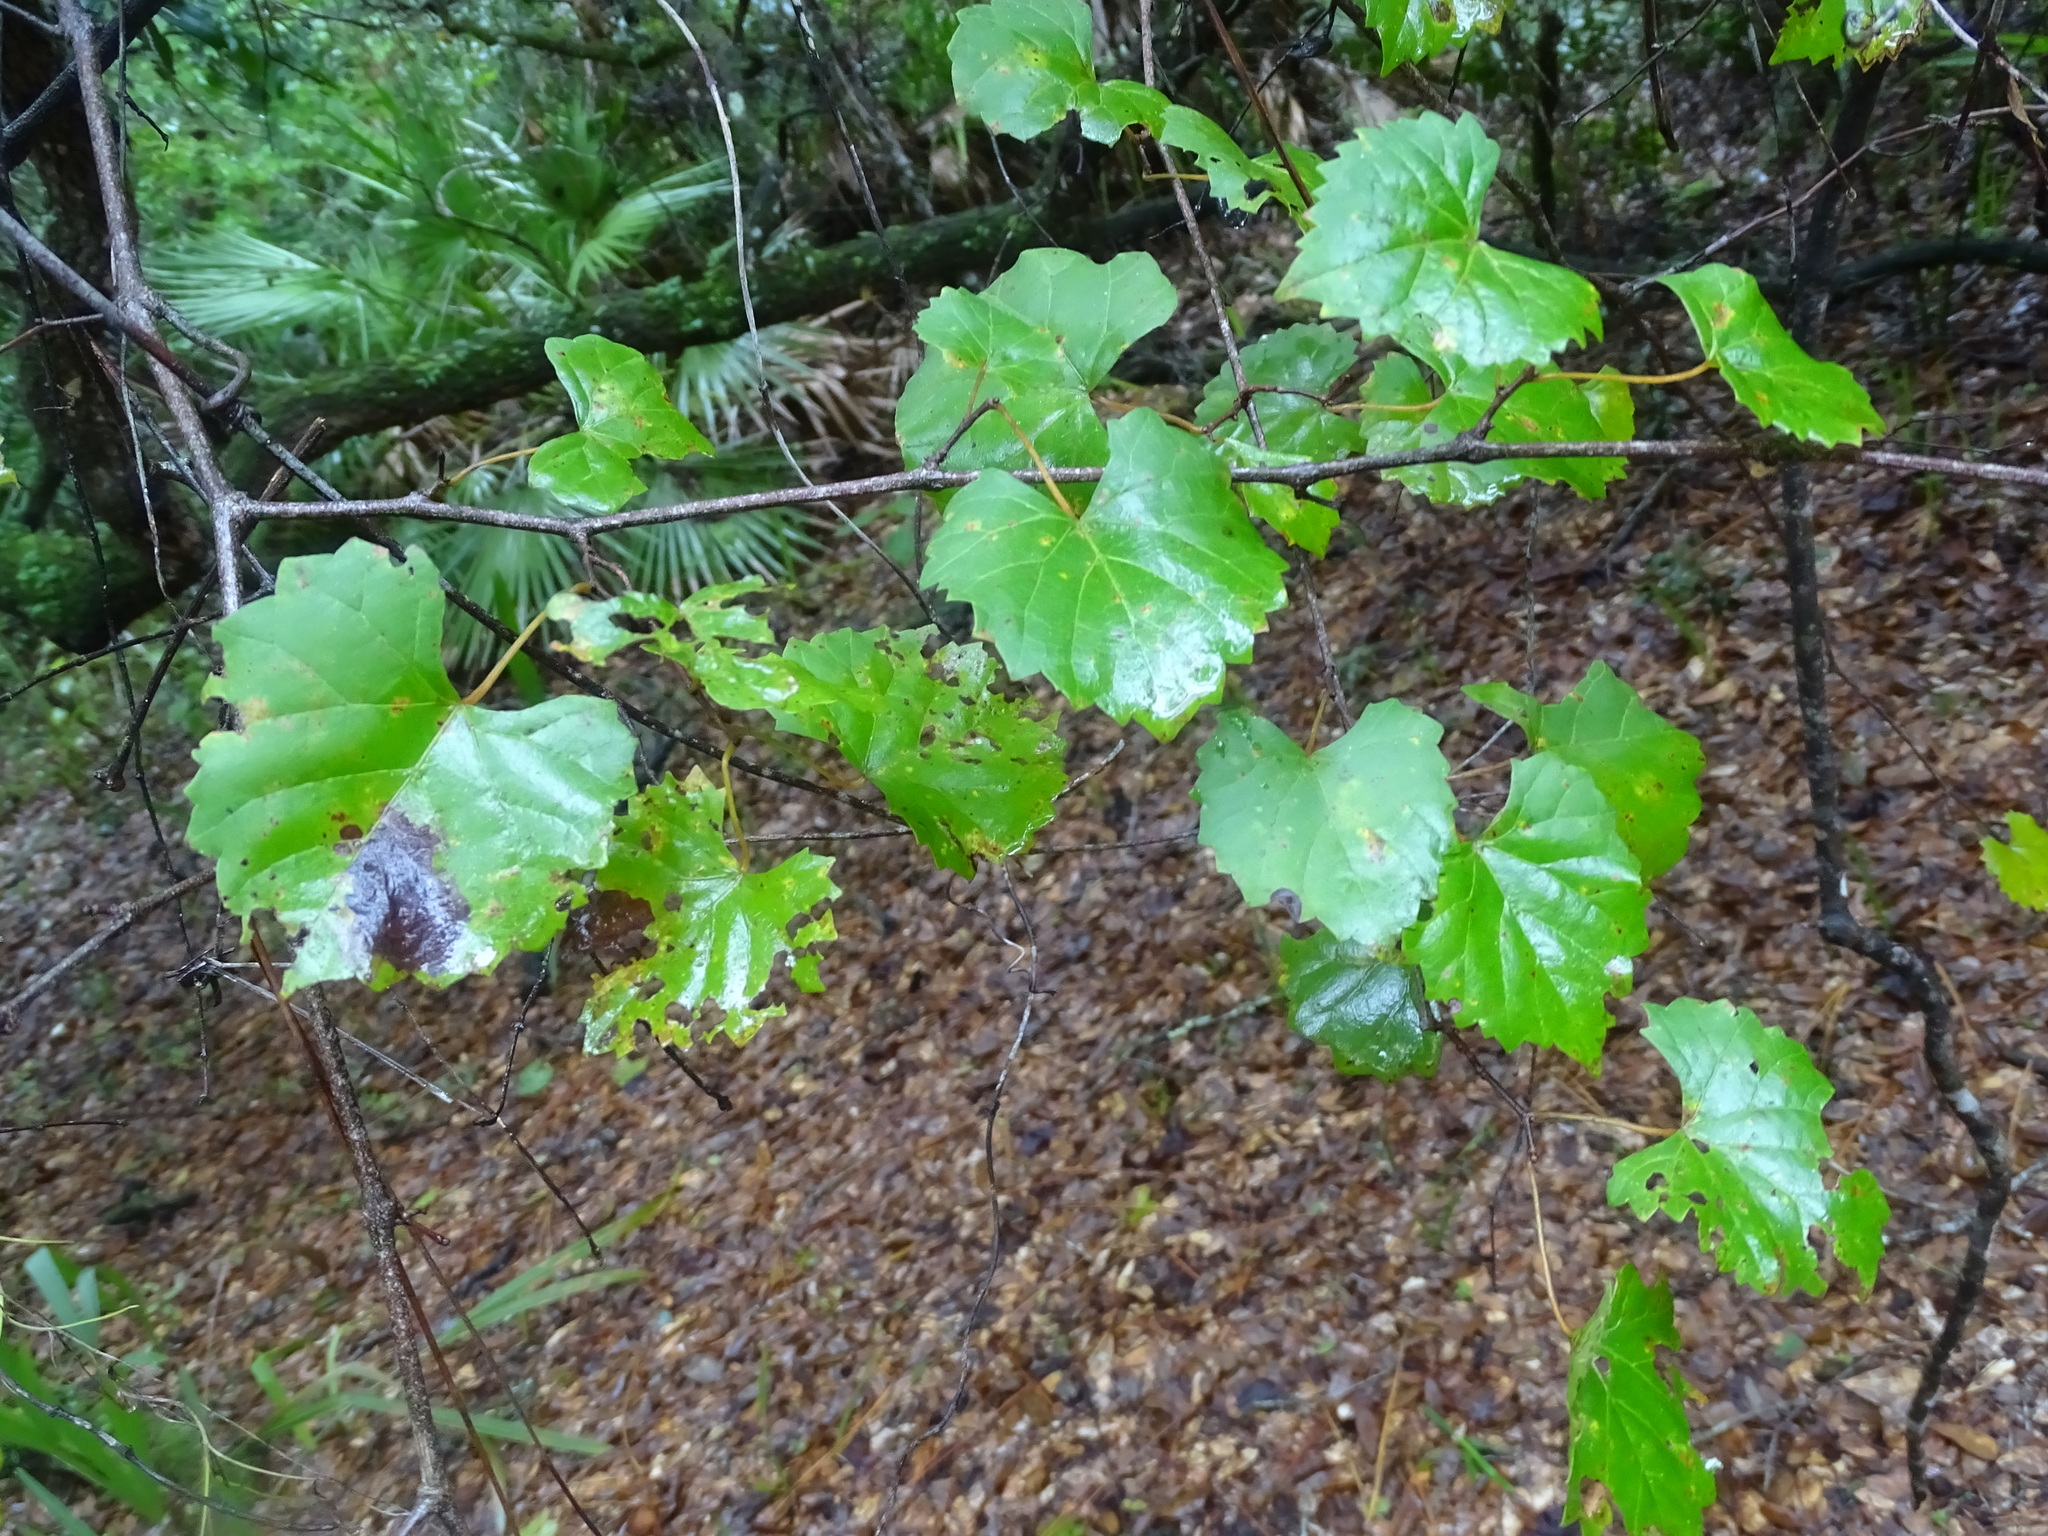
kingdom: Plantae
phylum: Tracheophyta
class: Magnoliopsida
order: Vitales
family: Vitaceae
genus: Vitis
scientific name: Vitis rotundifolia
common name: Muscadine grape
